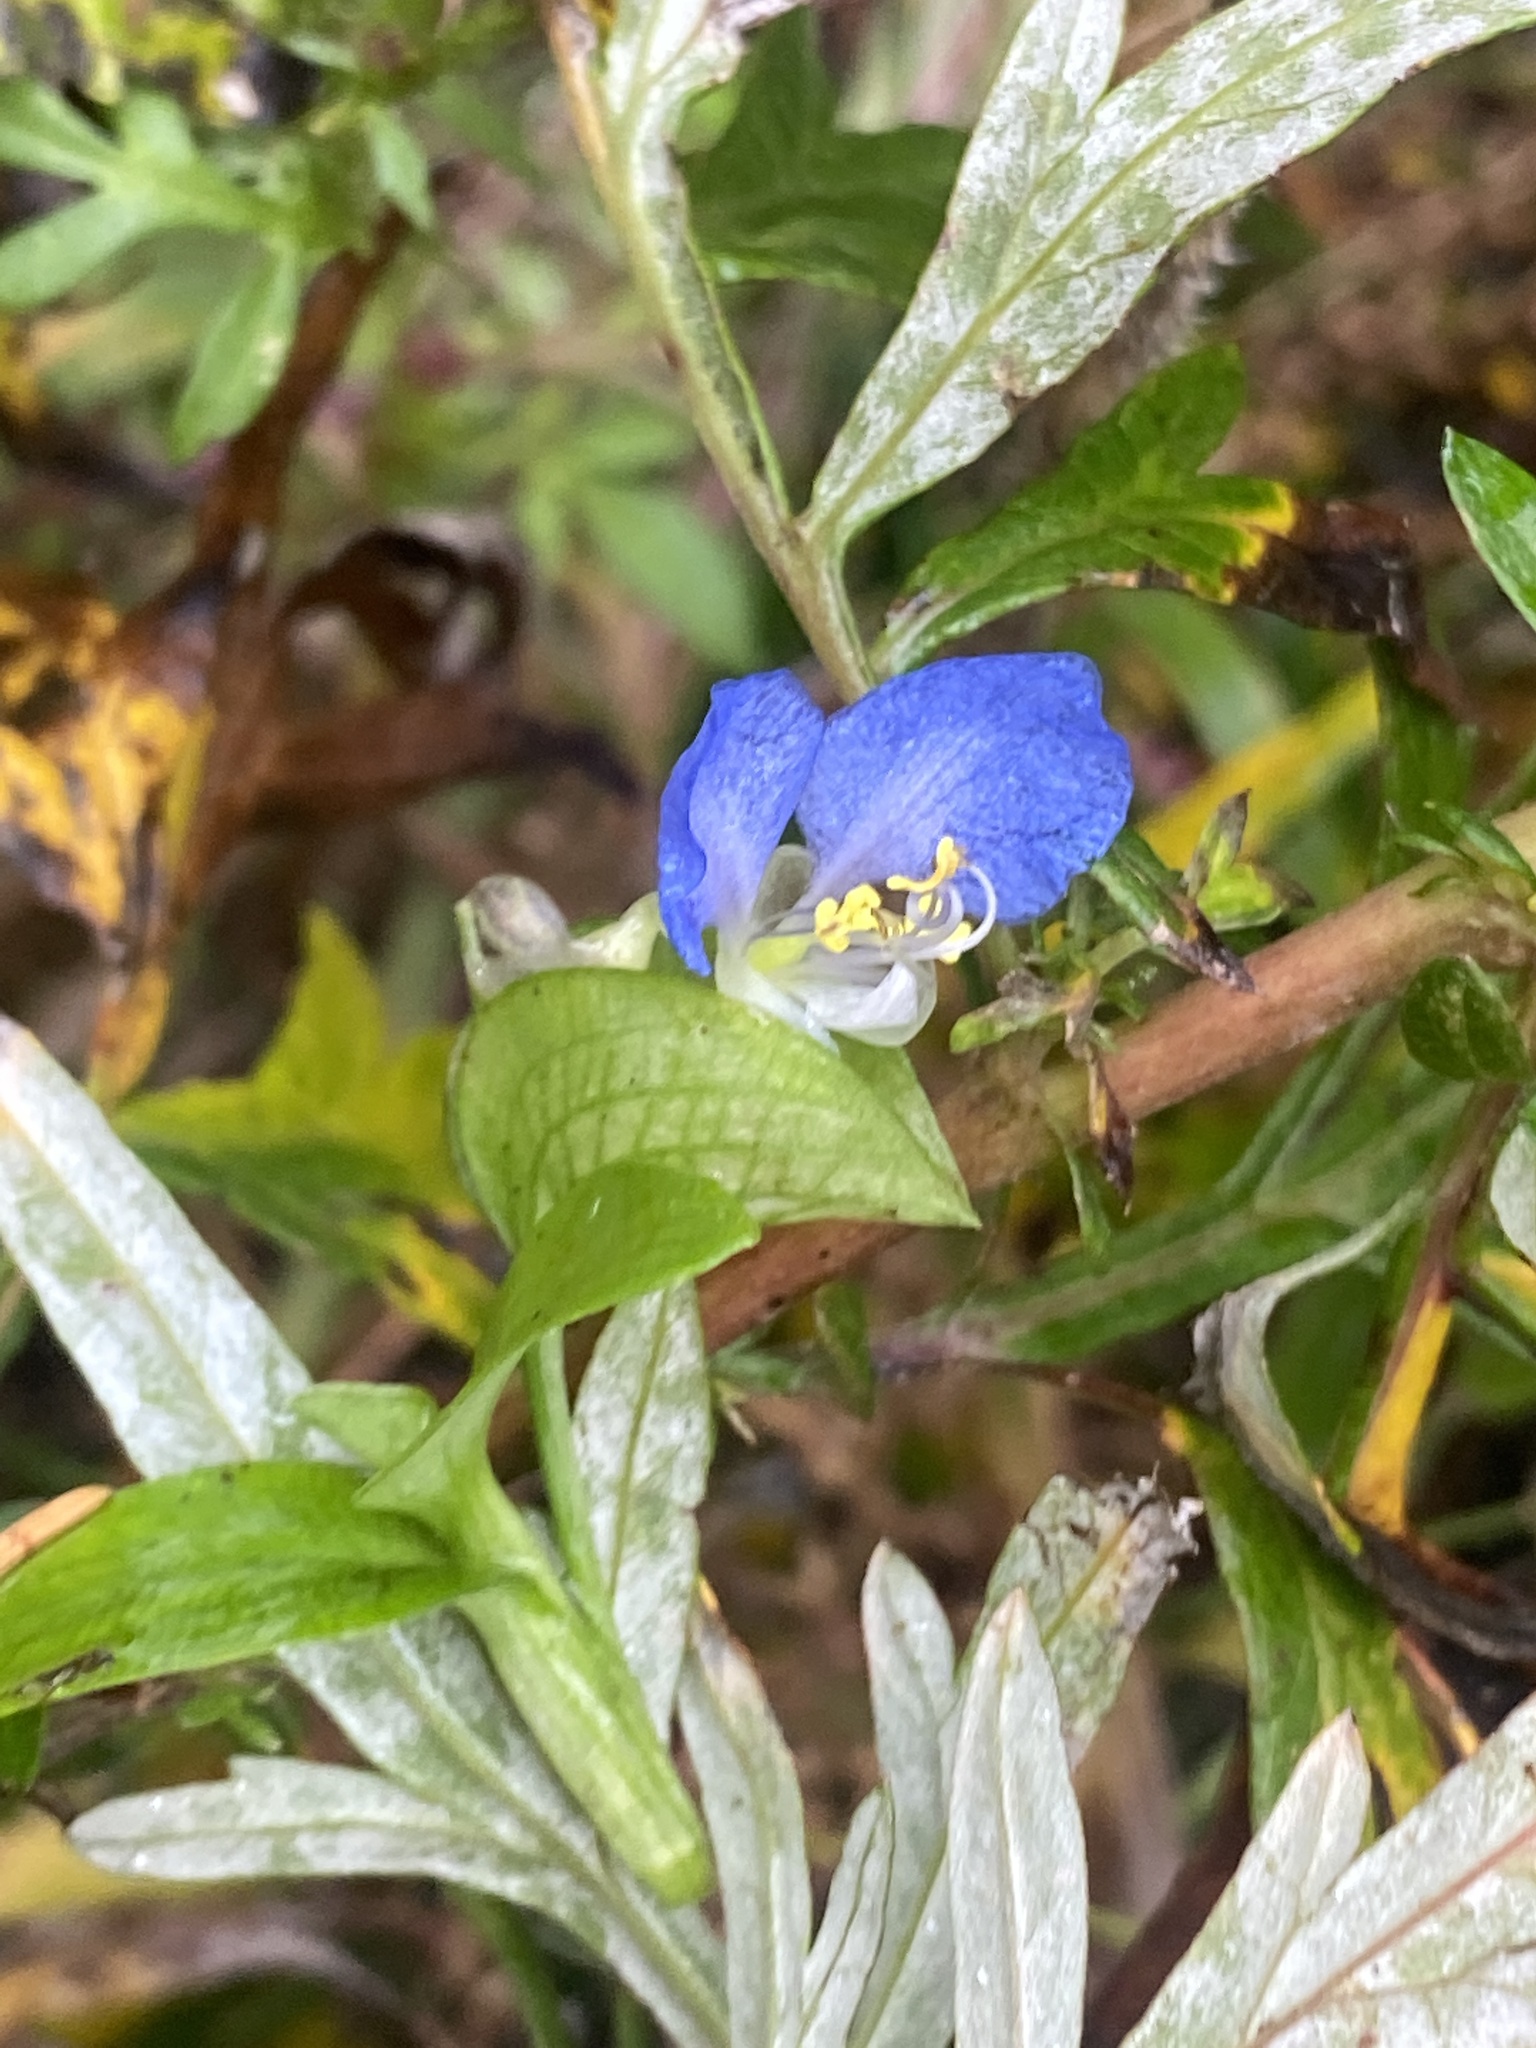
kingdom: Plantae
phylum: Tracheophyta
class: Liliopsida
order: Commelinales
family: Commelinaceae
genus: Commelina
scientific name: Commelina communis
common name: Asiatic dayflower
